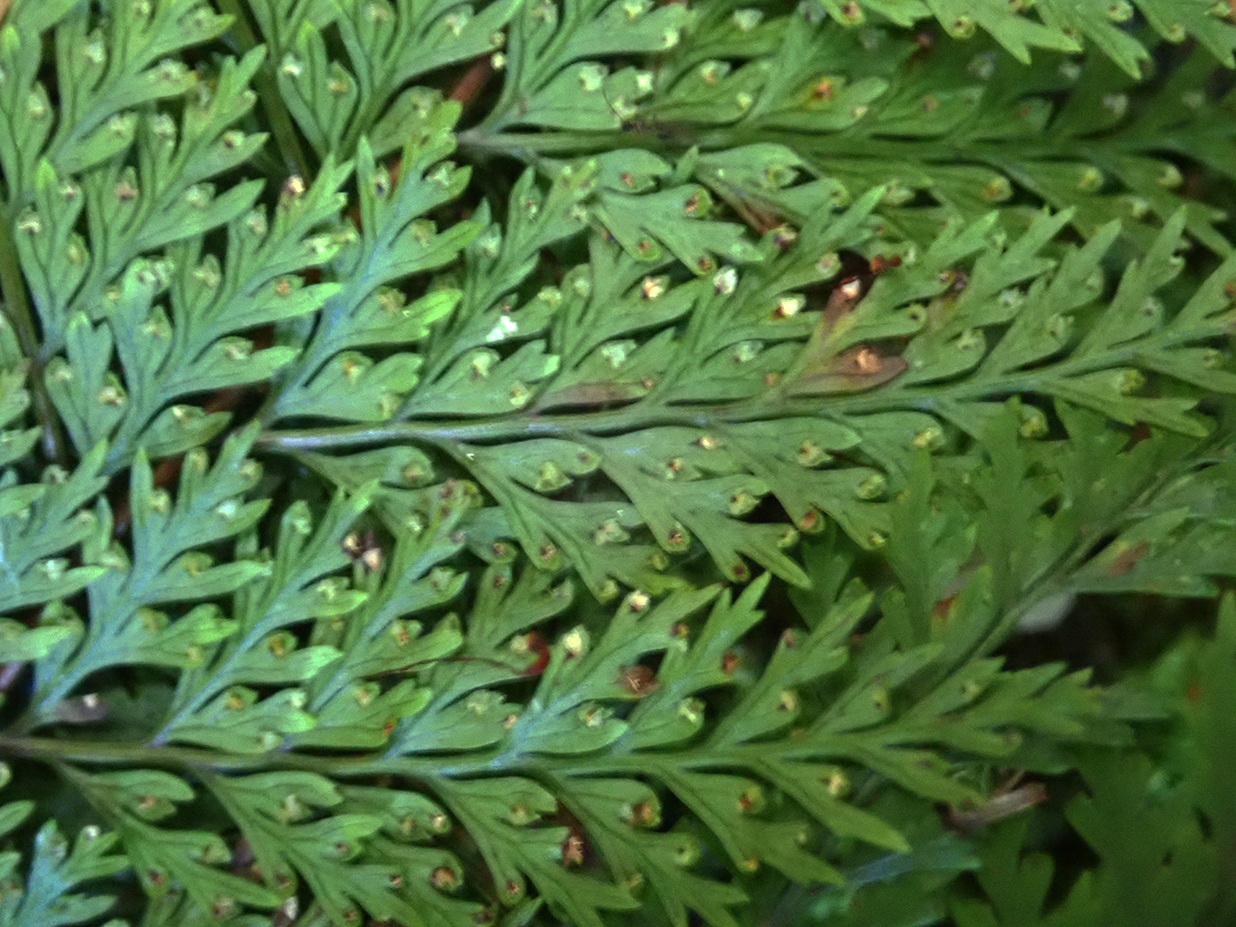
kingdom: Plantae
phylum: Tracheophyta
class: Polypodiopsida
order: Polypodiales
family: Dennstaedtiaceae
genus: Dennstaedtia
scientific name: Dennstaedtia novae-zelandiae
